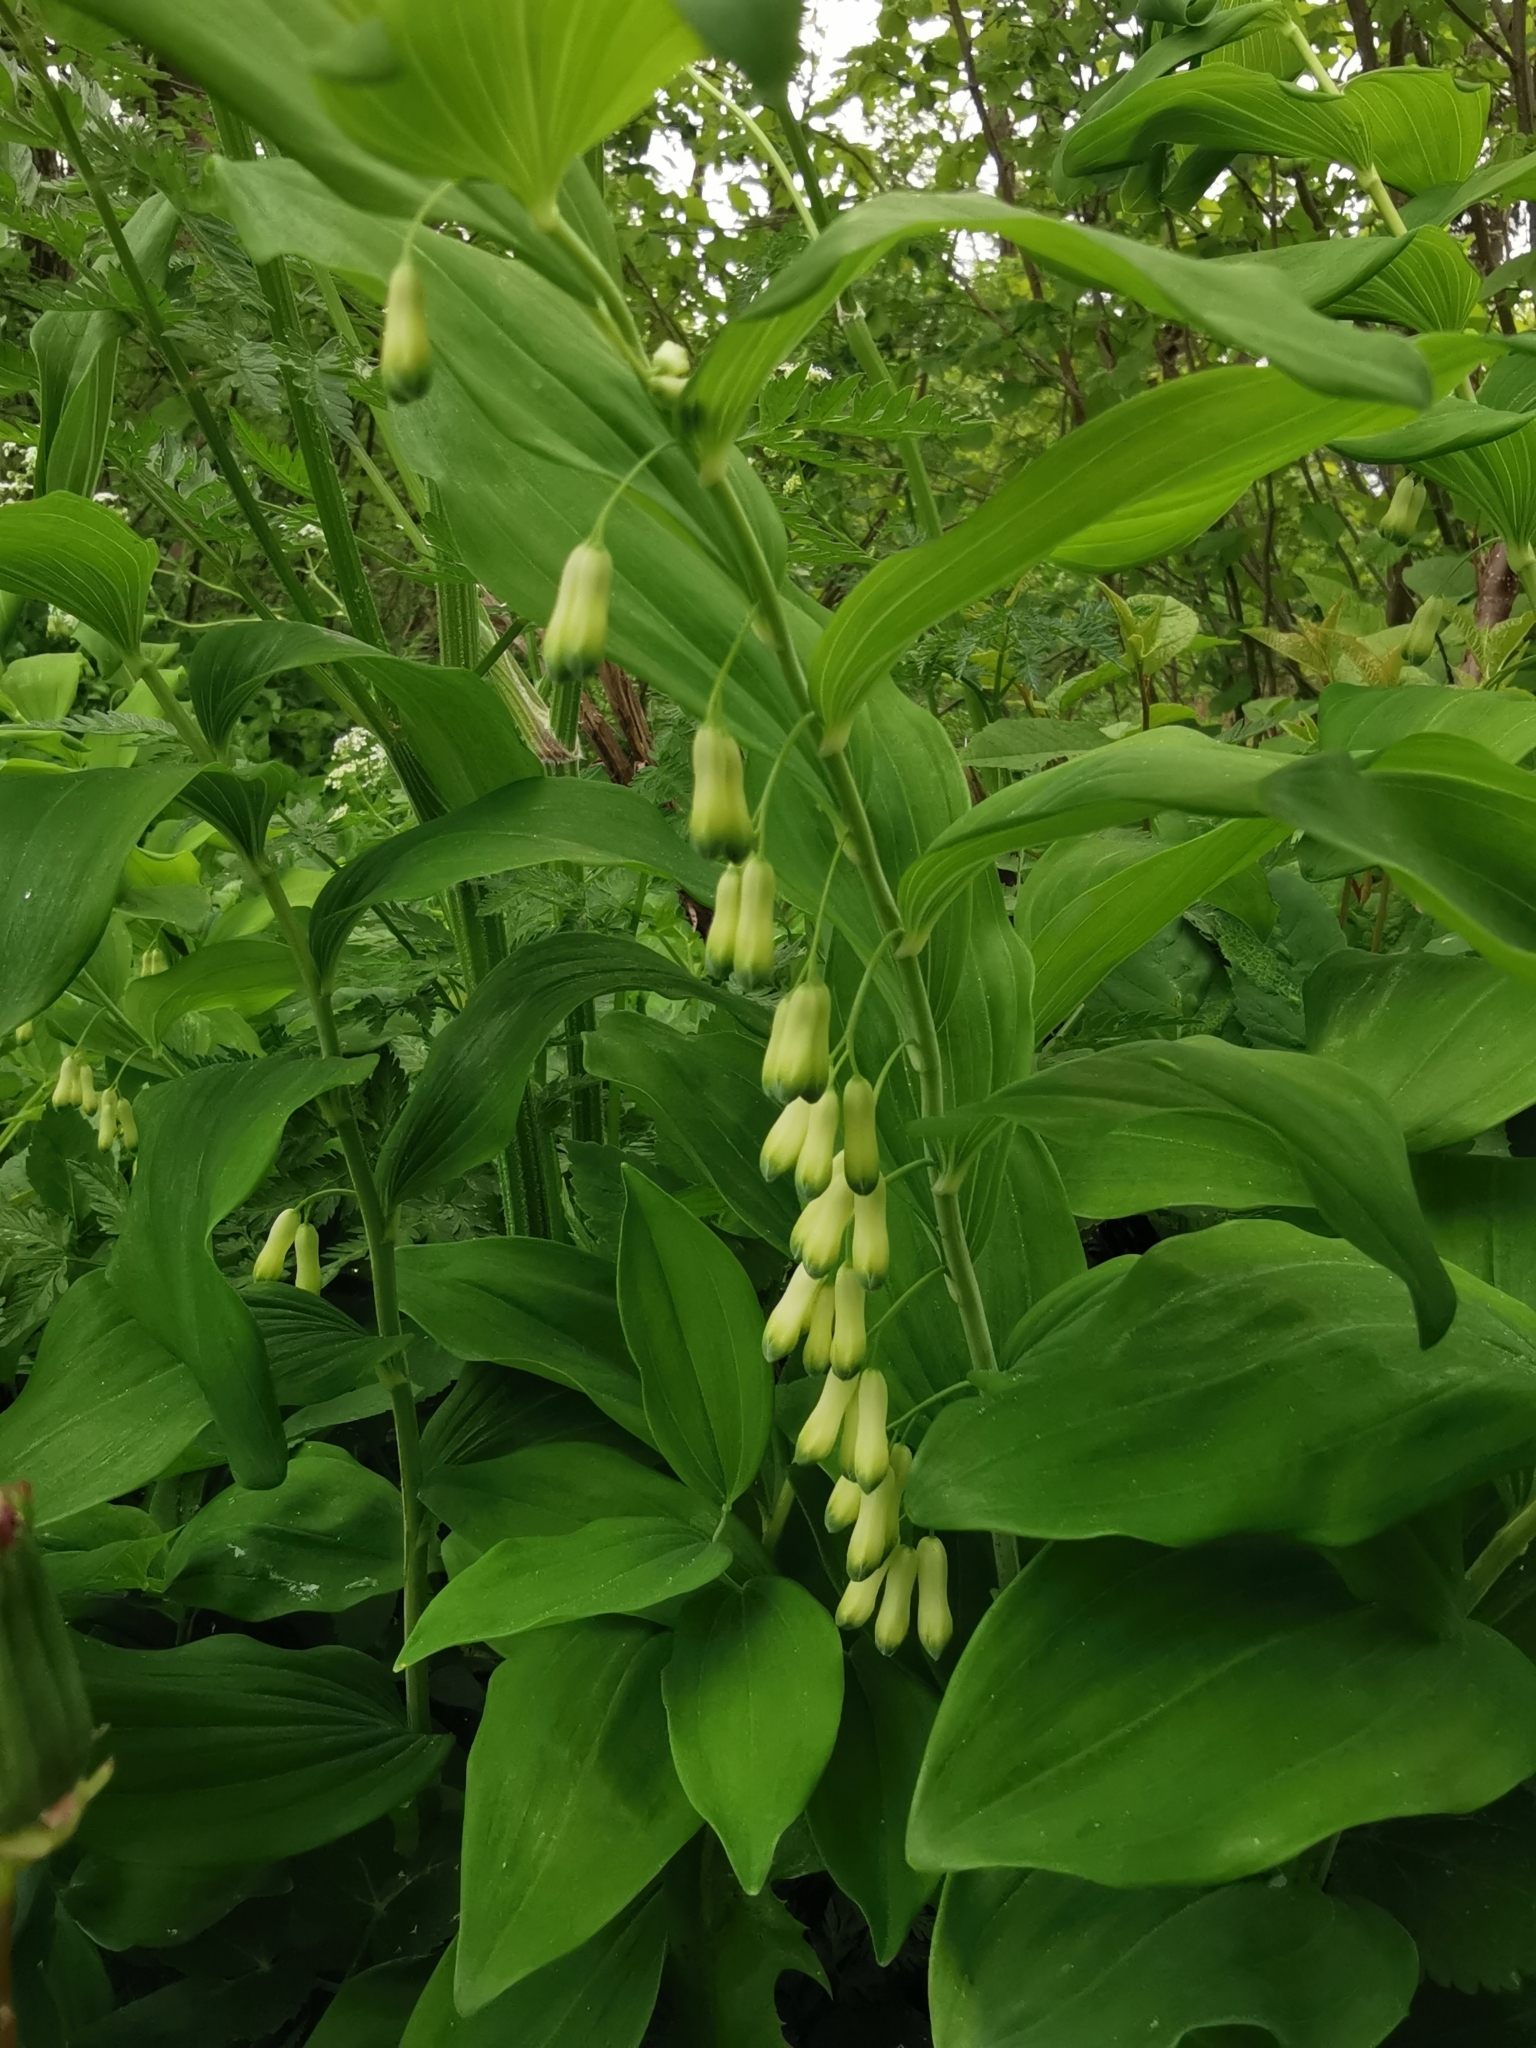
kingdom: Plantae
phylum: Tracheophyta
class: Liliopsida
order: Asparagales
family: Asparagaceae
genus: Polygonatum
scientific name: Polygonatum multiflorum
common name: Solomon's-seal
